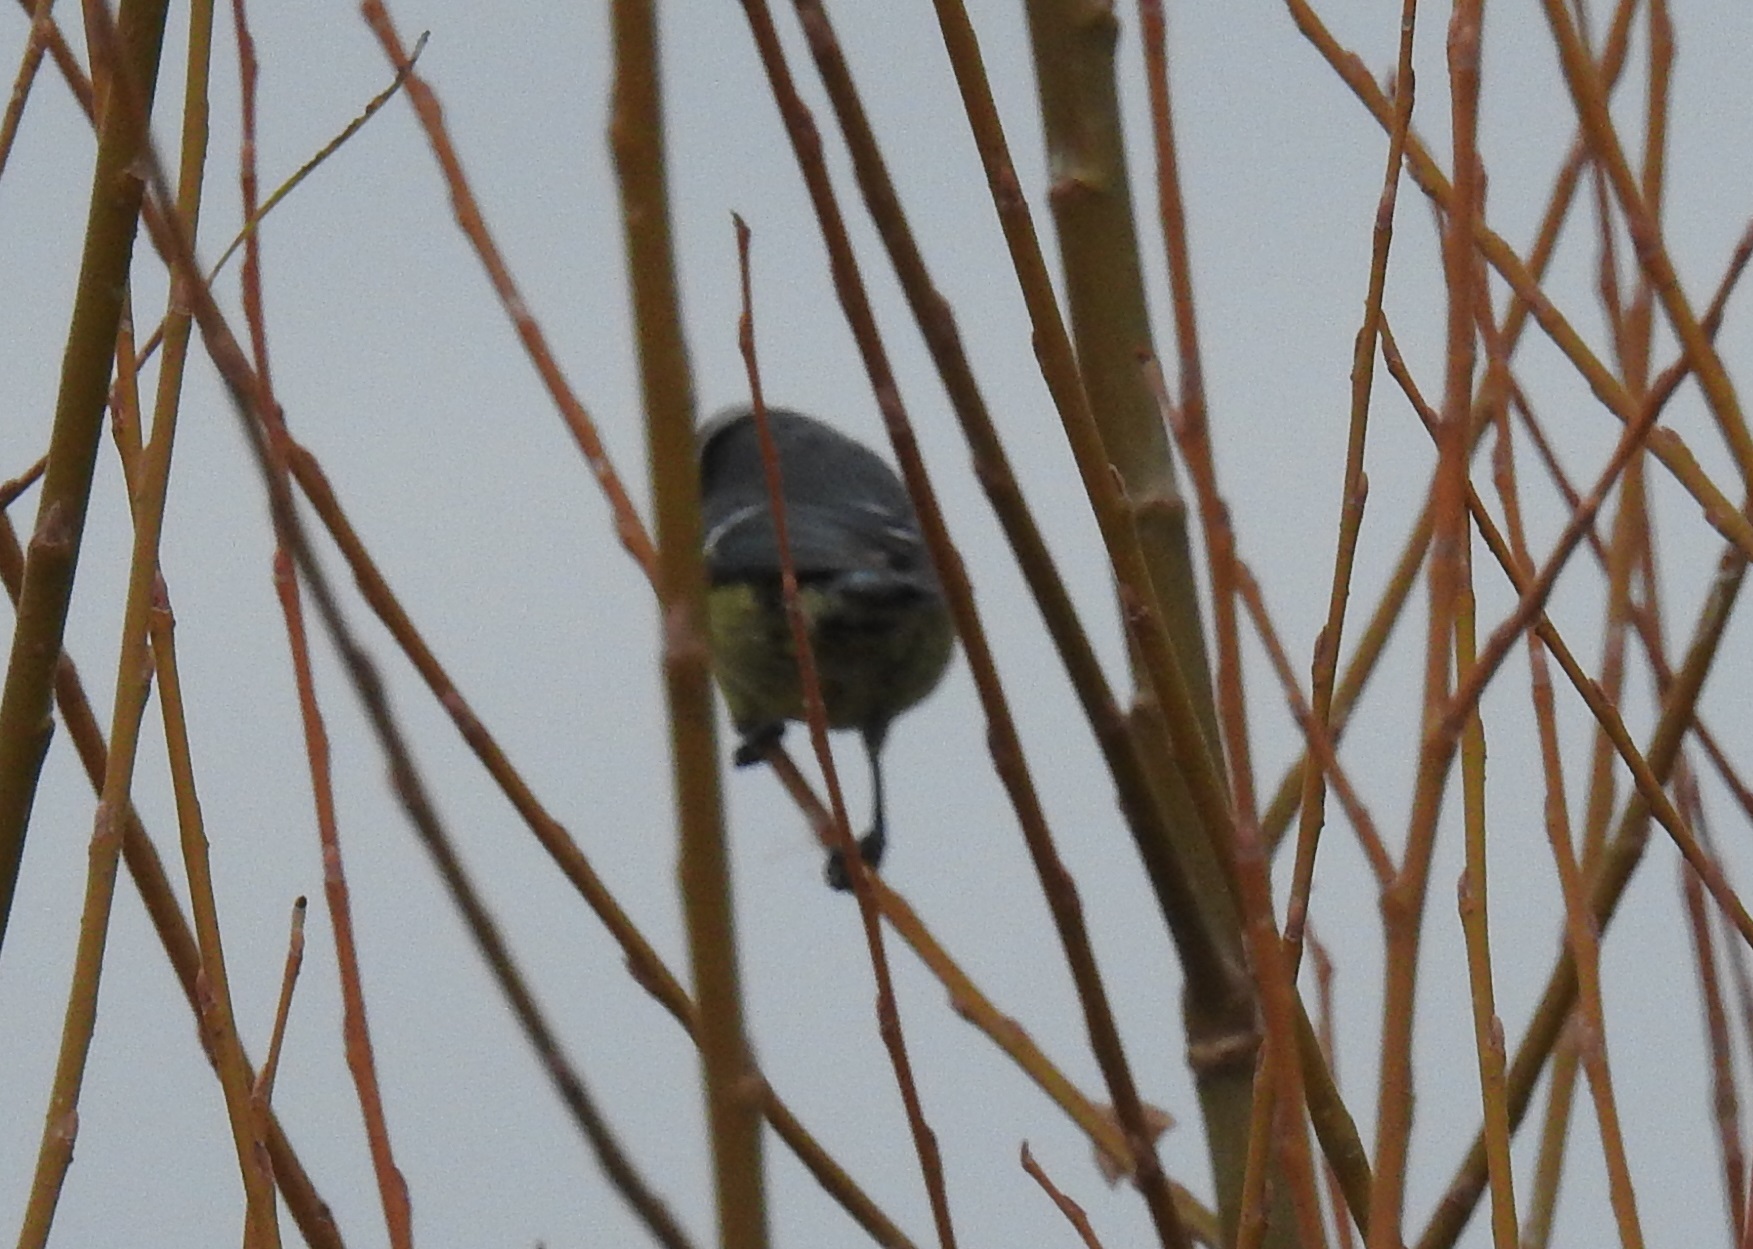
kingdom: Animalia
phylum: Chordata
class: Aves
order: Passeriformes
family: Paridae
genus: Cyanistes
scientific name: Cyanistes teneriffae
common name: African blue tit
